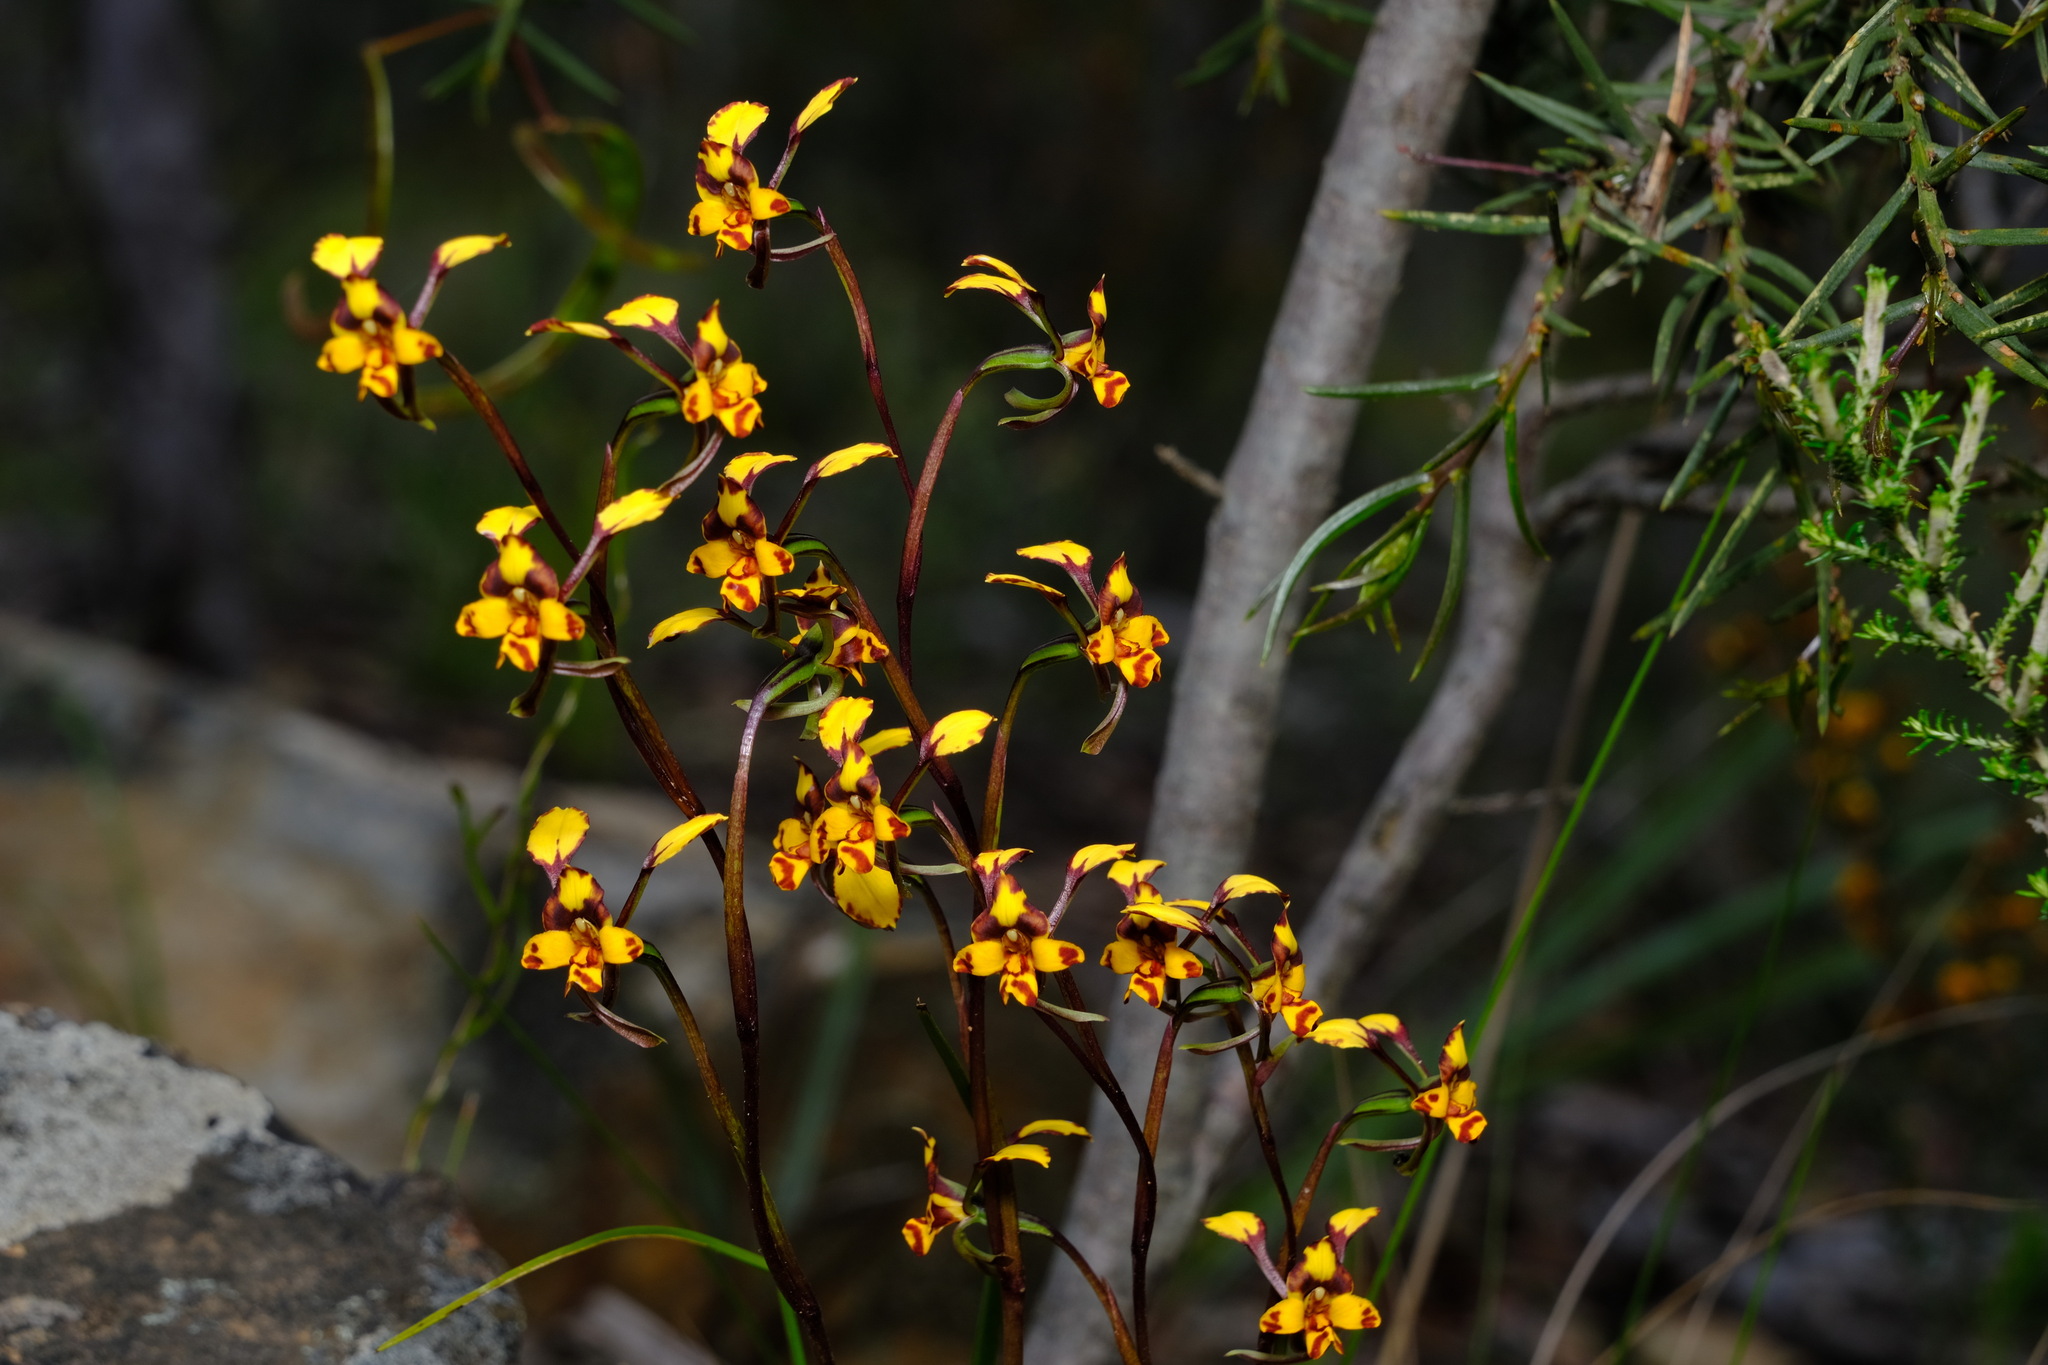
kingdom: Plantae
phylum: Tracheophyta
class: Liliopsida
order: Asparagales
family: Orchidaceae
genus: Diuris
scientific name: Diuris pardina
